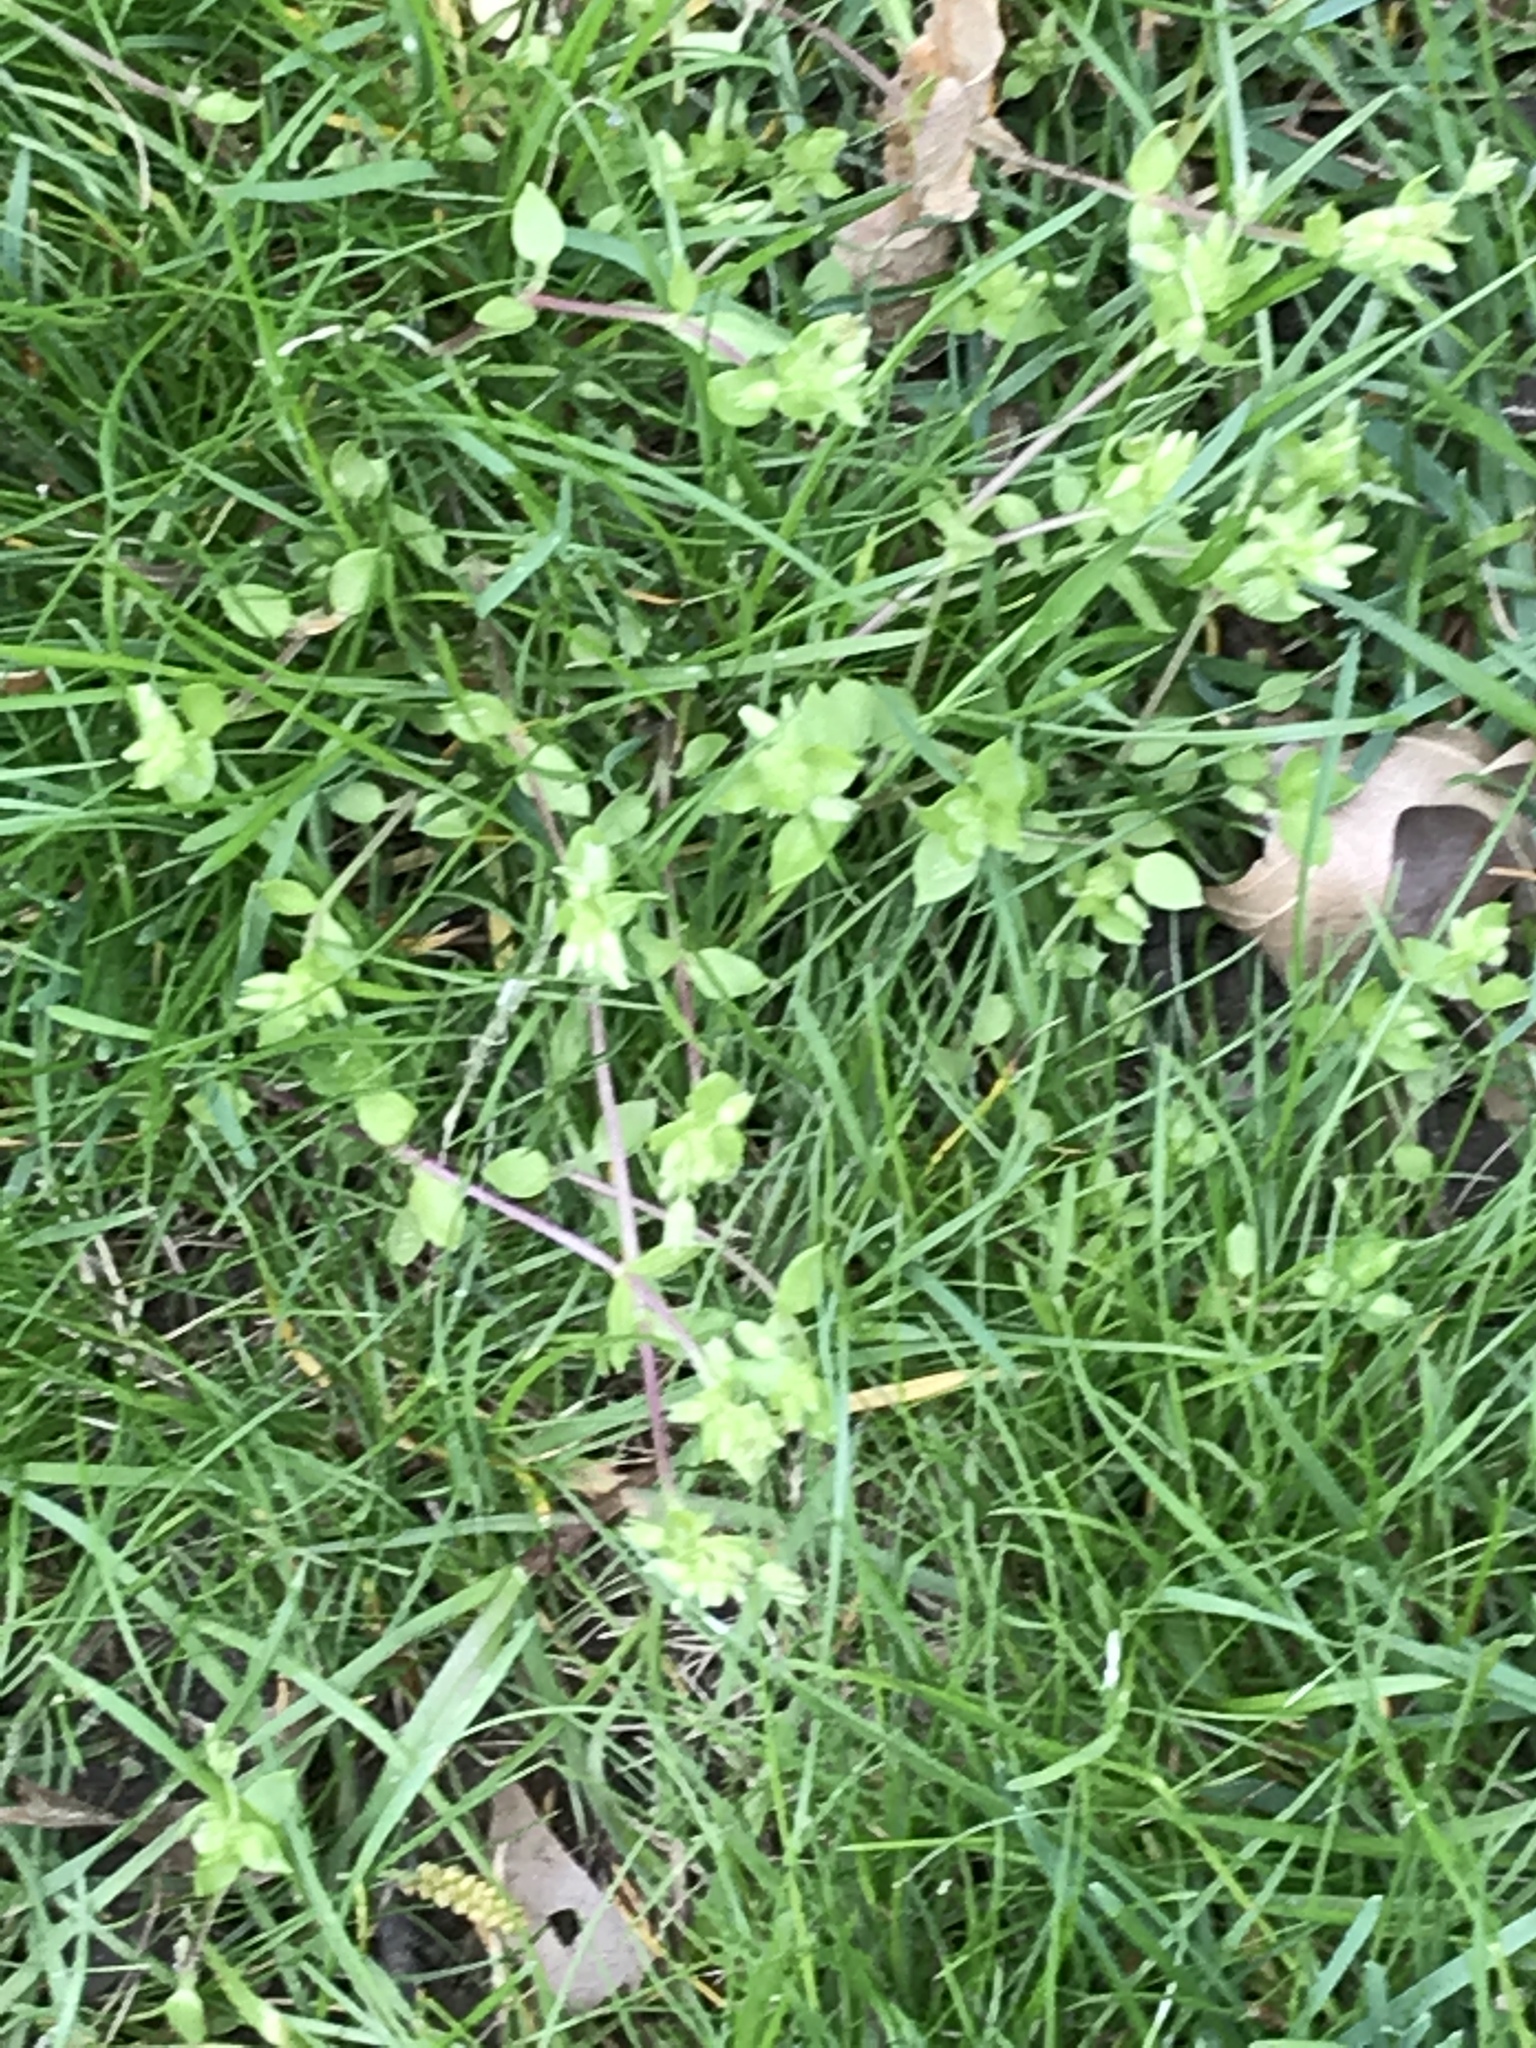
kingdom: Plantae
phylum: Tracheophyta
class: Magnoliopsida
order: Caryophyllales
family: Caryophyllaceae
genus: Stellaria
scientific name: Stellaria media
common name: Common chickweed
